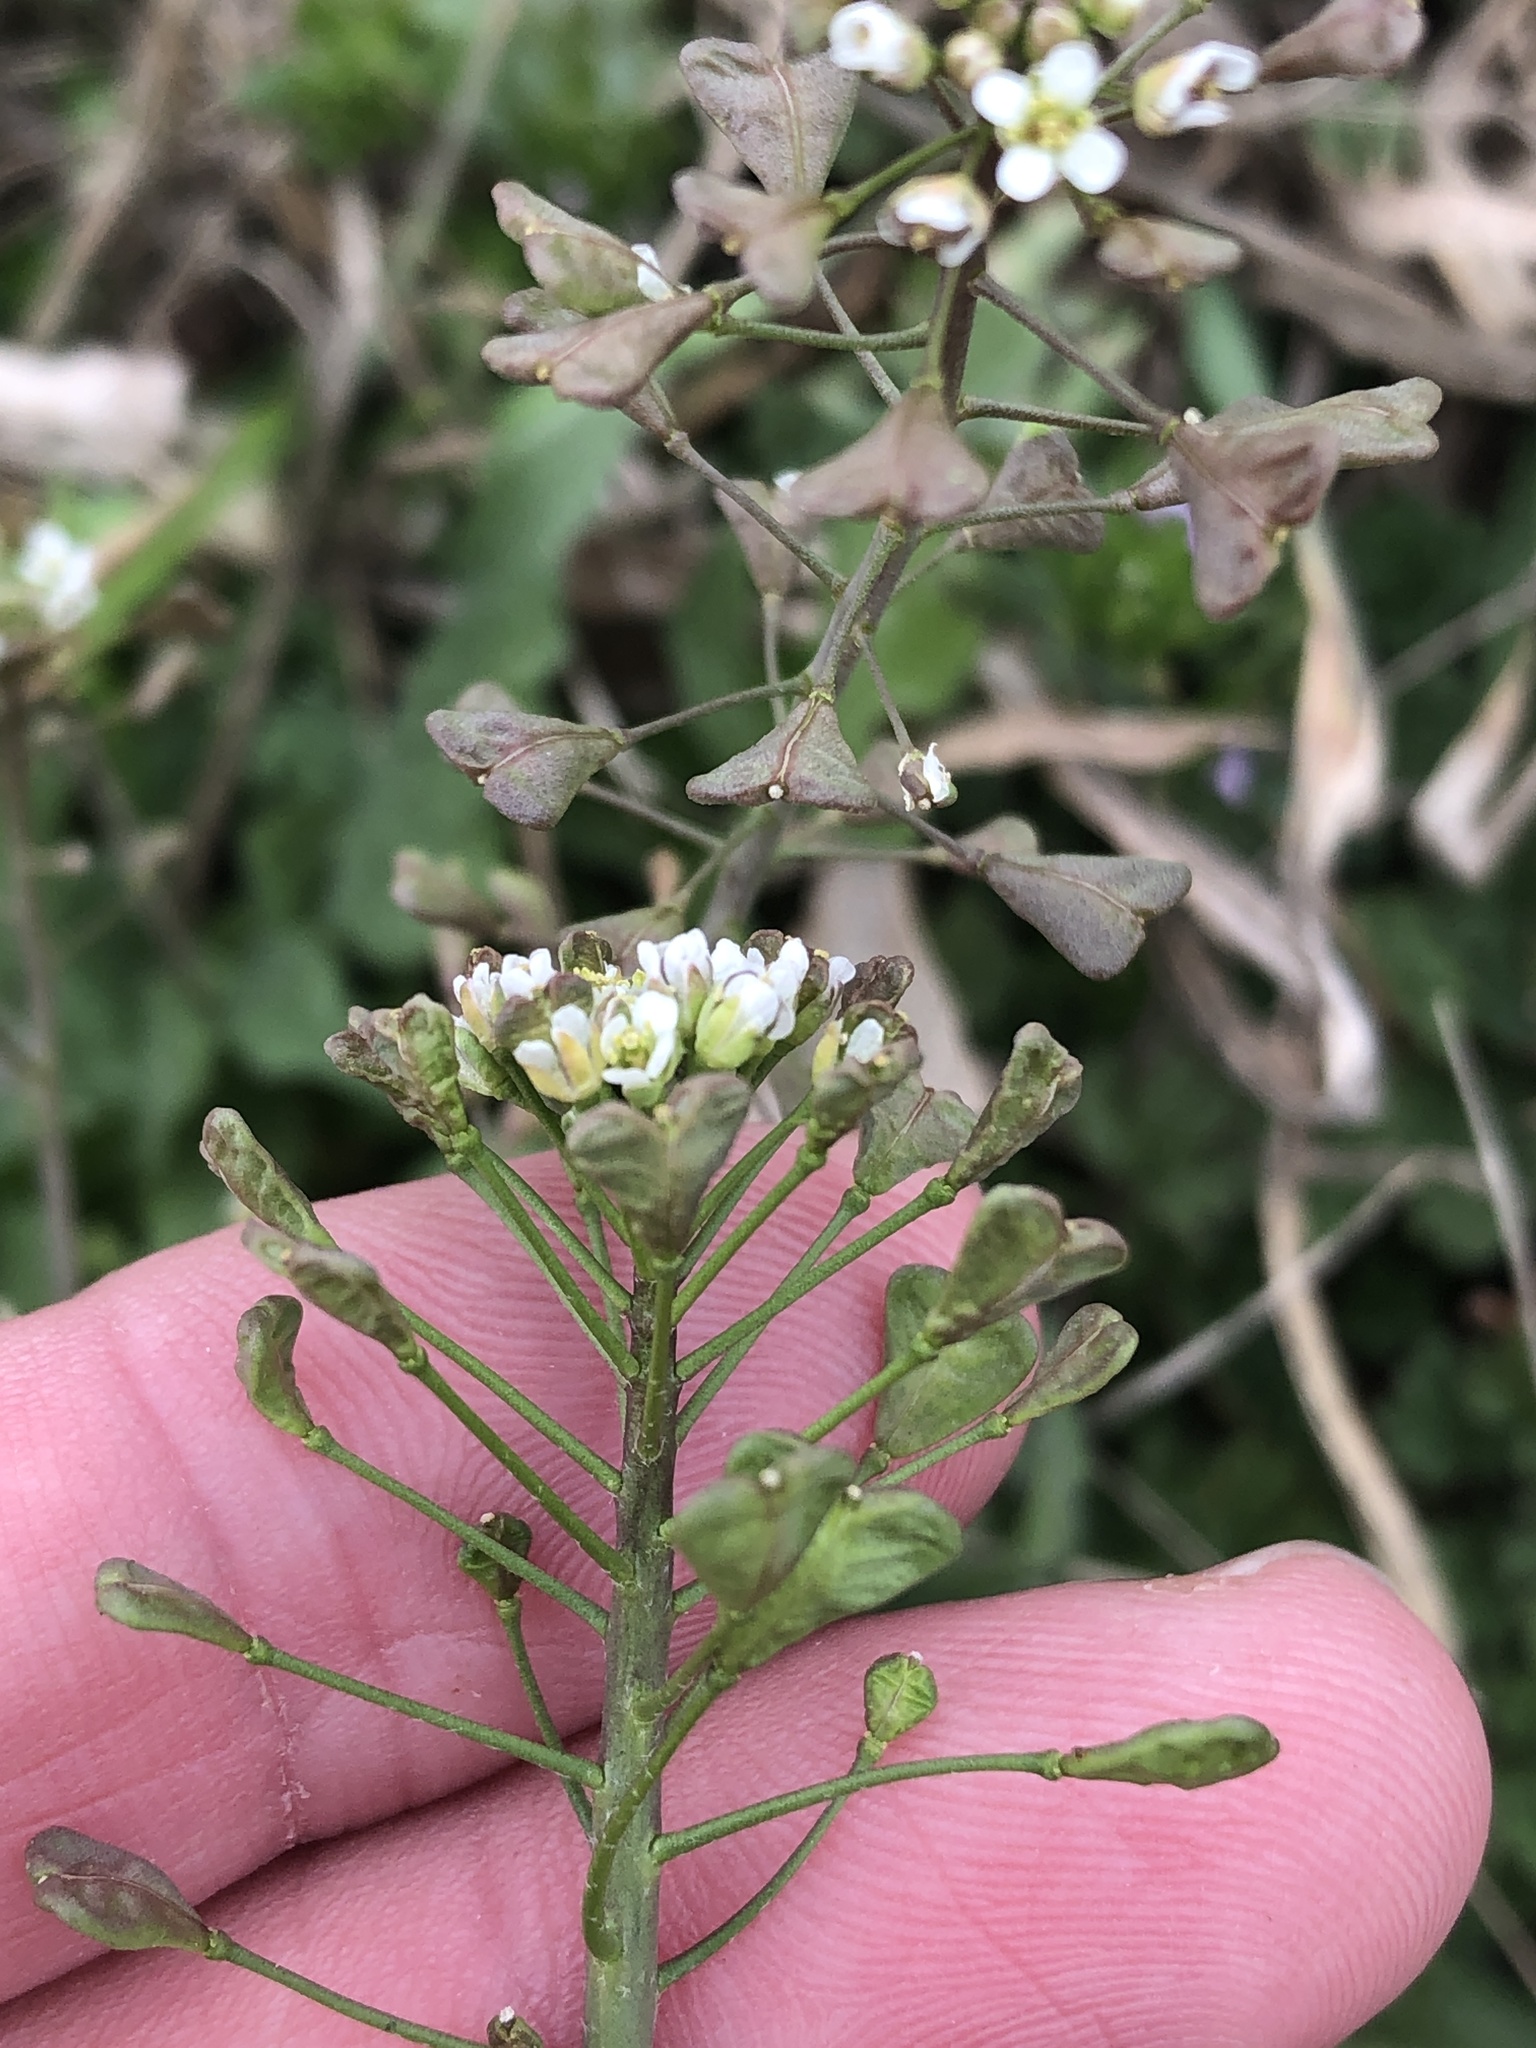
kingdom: Plantae
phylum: Tracheophyta
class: Magnoliopsida
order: Brassicales
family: Brassicaceae
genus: Capsella
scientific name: Capsella bursa-pastoris
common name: Shepherd's purse
